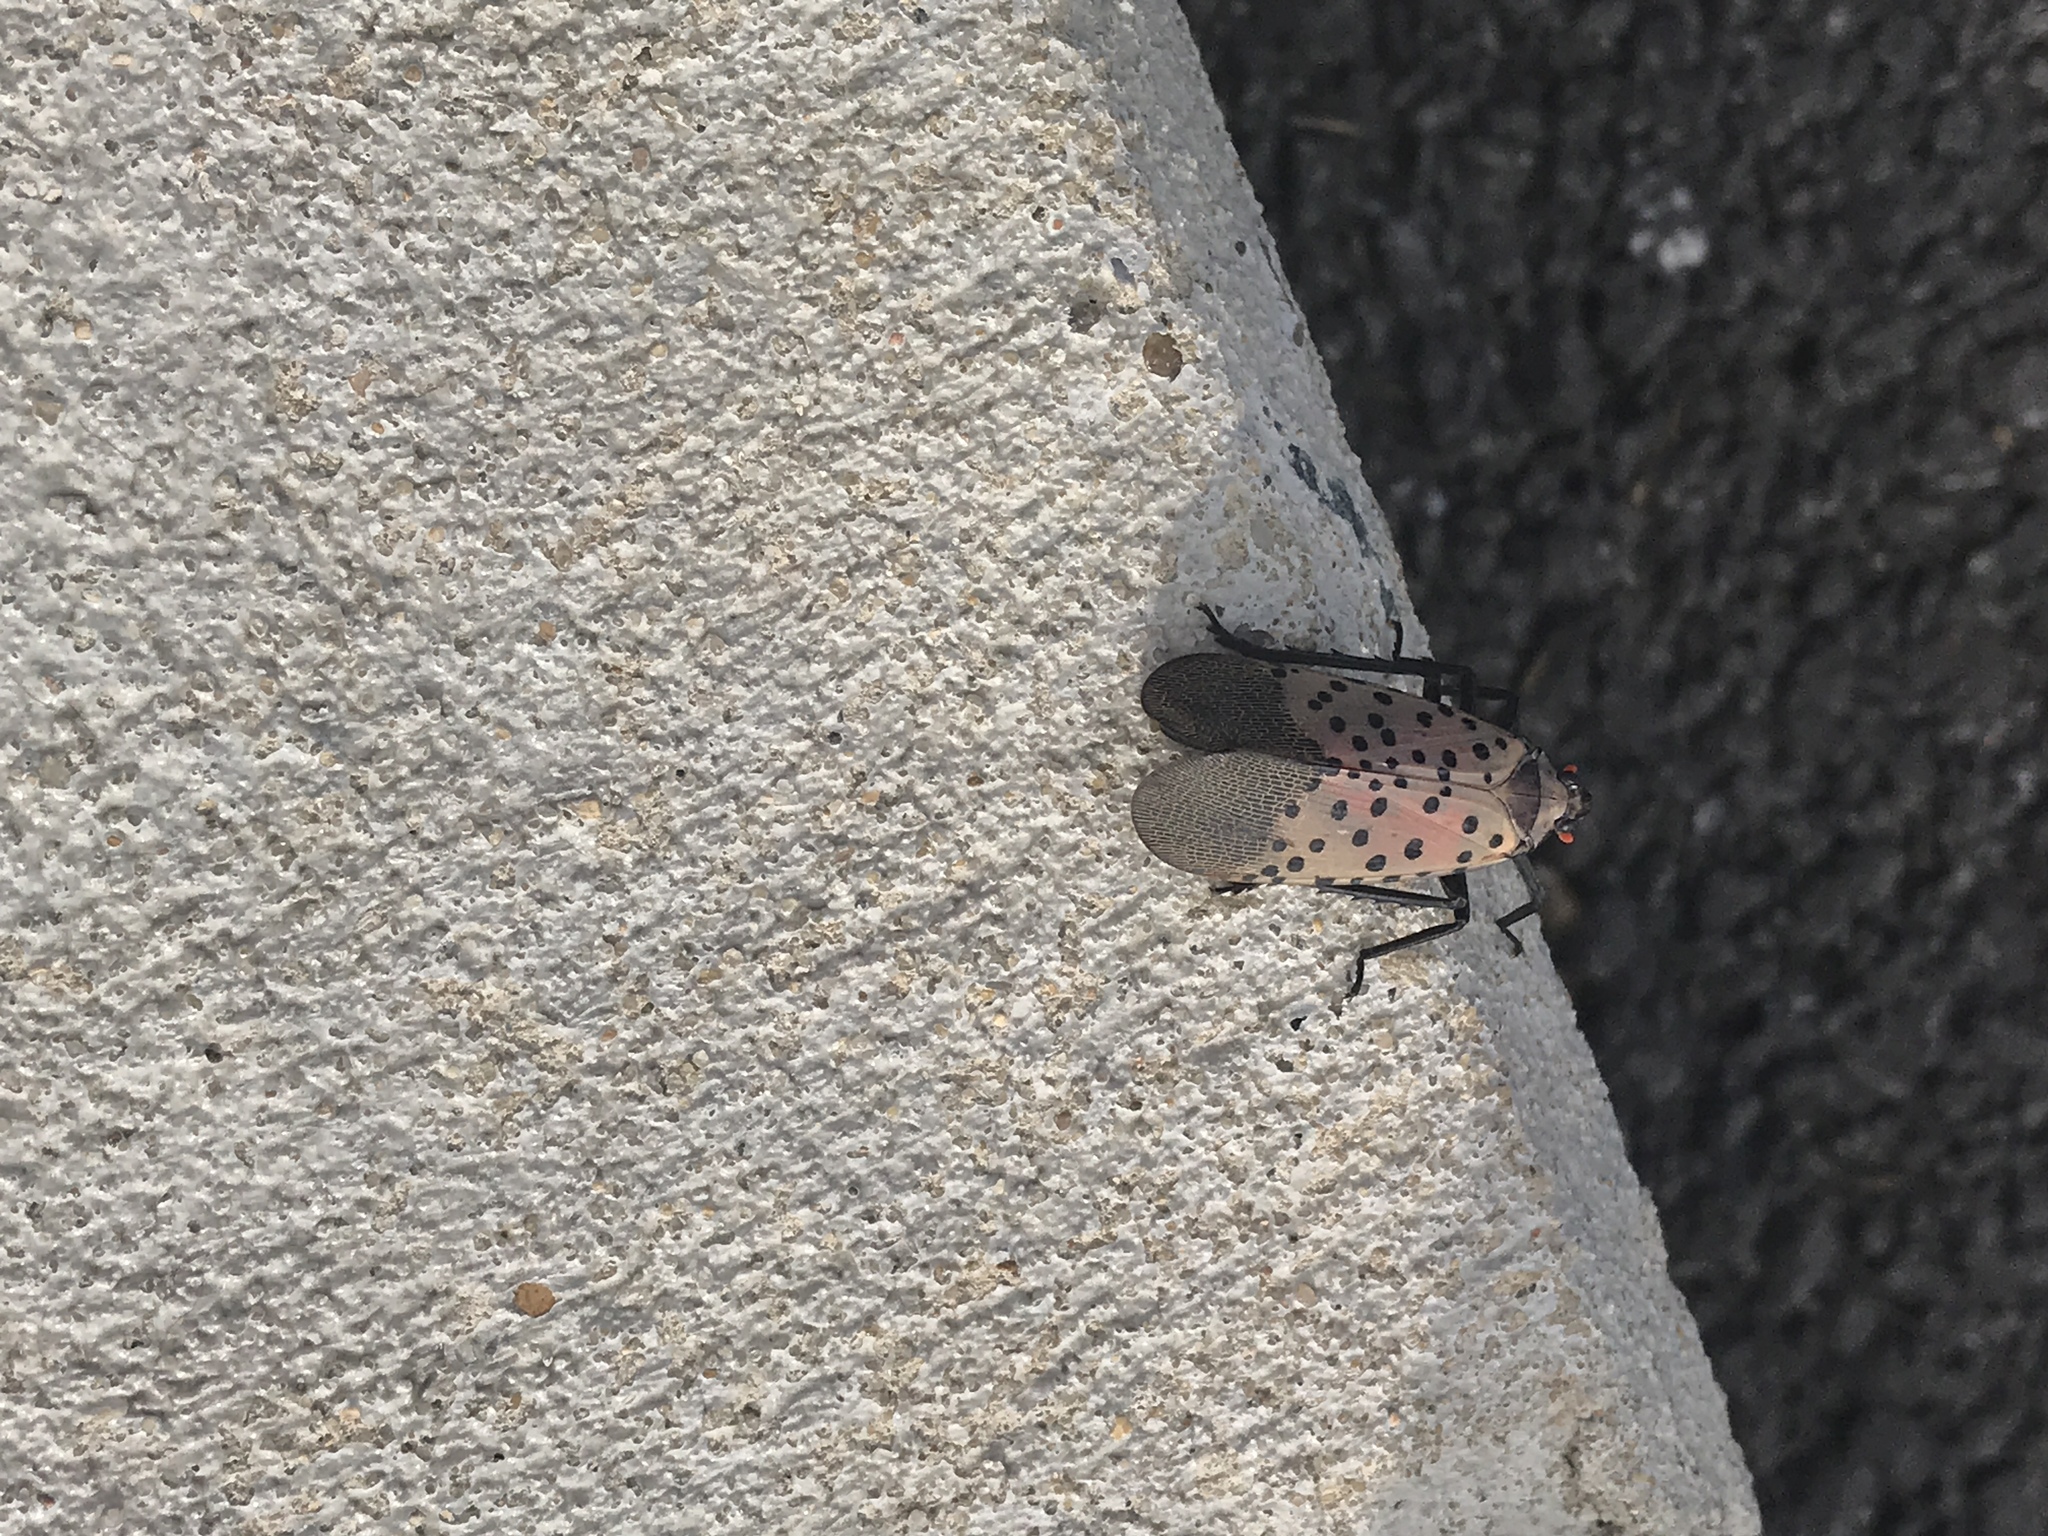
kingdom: Animalia
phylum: Arthropoda
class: Insecta
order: Hemiptera
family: Fulgoridae
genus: Lycorma
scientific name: Lycorma delicatula
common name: Spotted lanternfly
